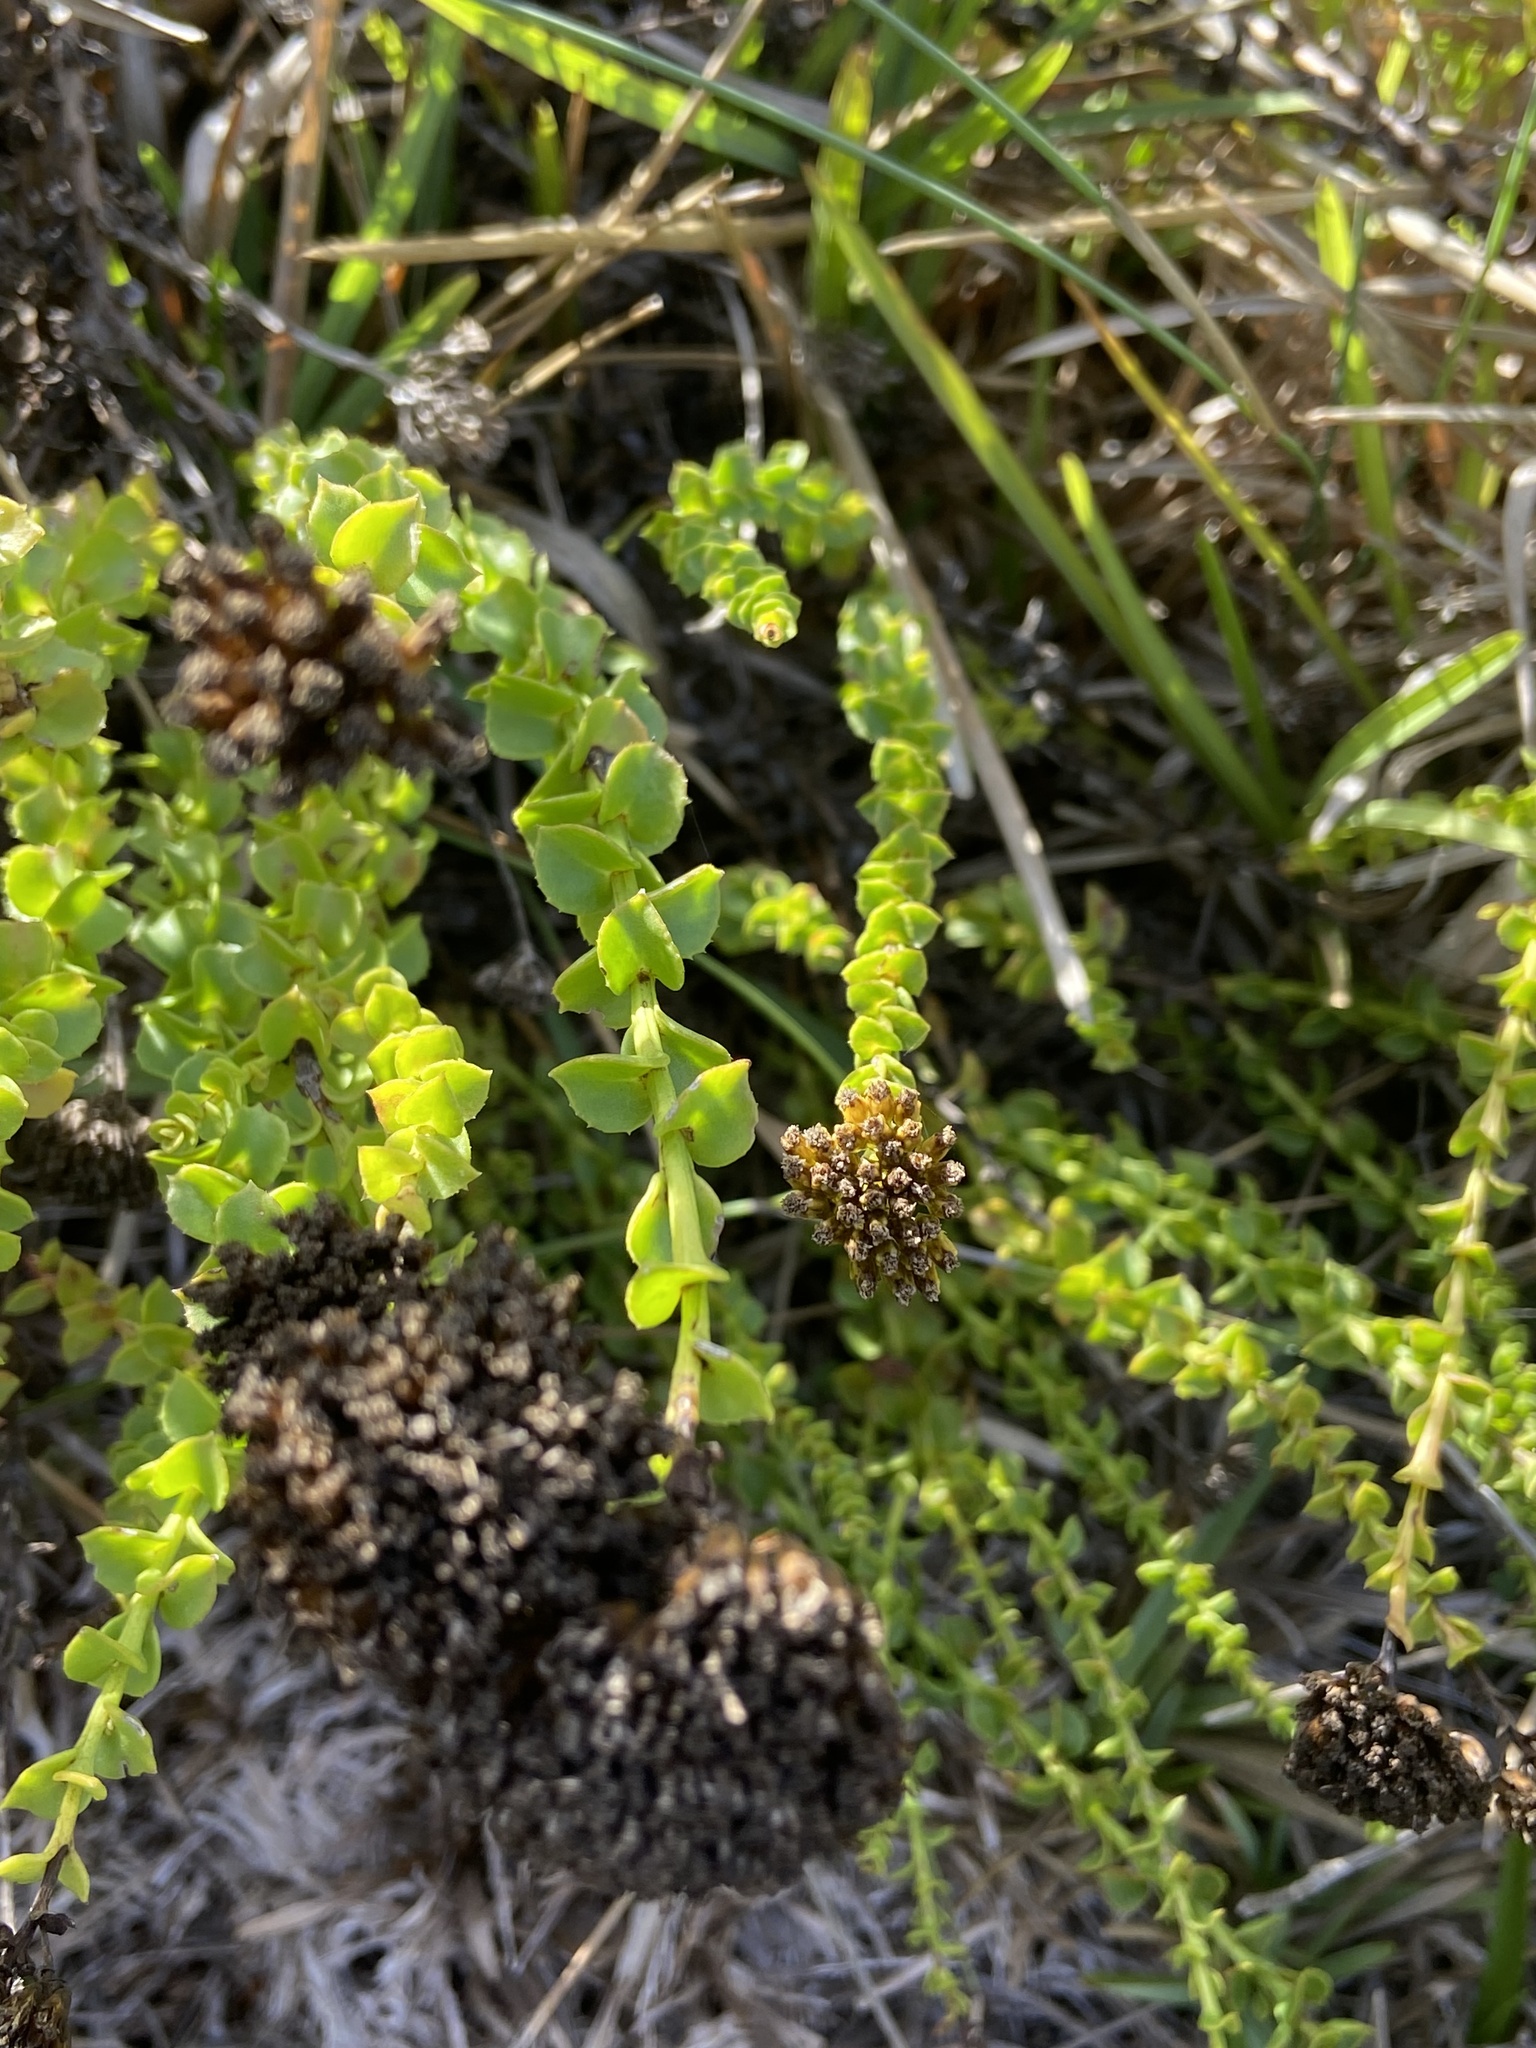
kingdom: Plantae
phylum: Tracheophyta
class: Magnoliopsida
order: Asterales
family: Asteraceae
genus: Athanasia
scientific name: Athanasia dentata
